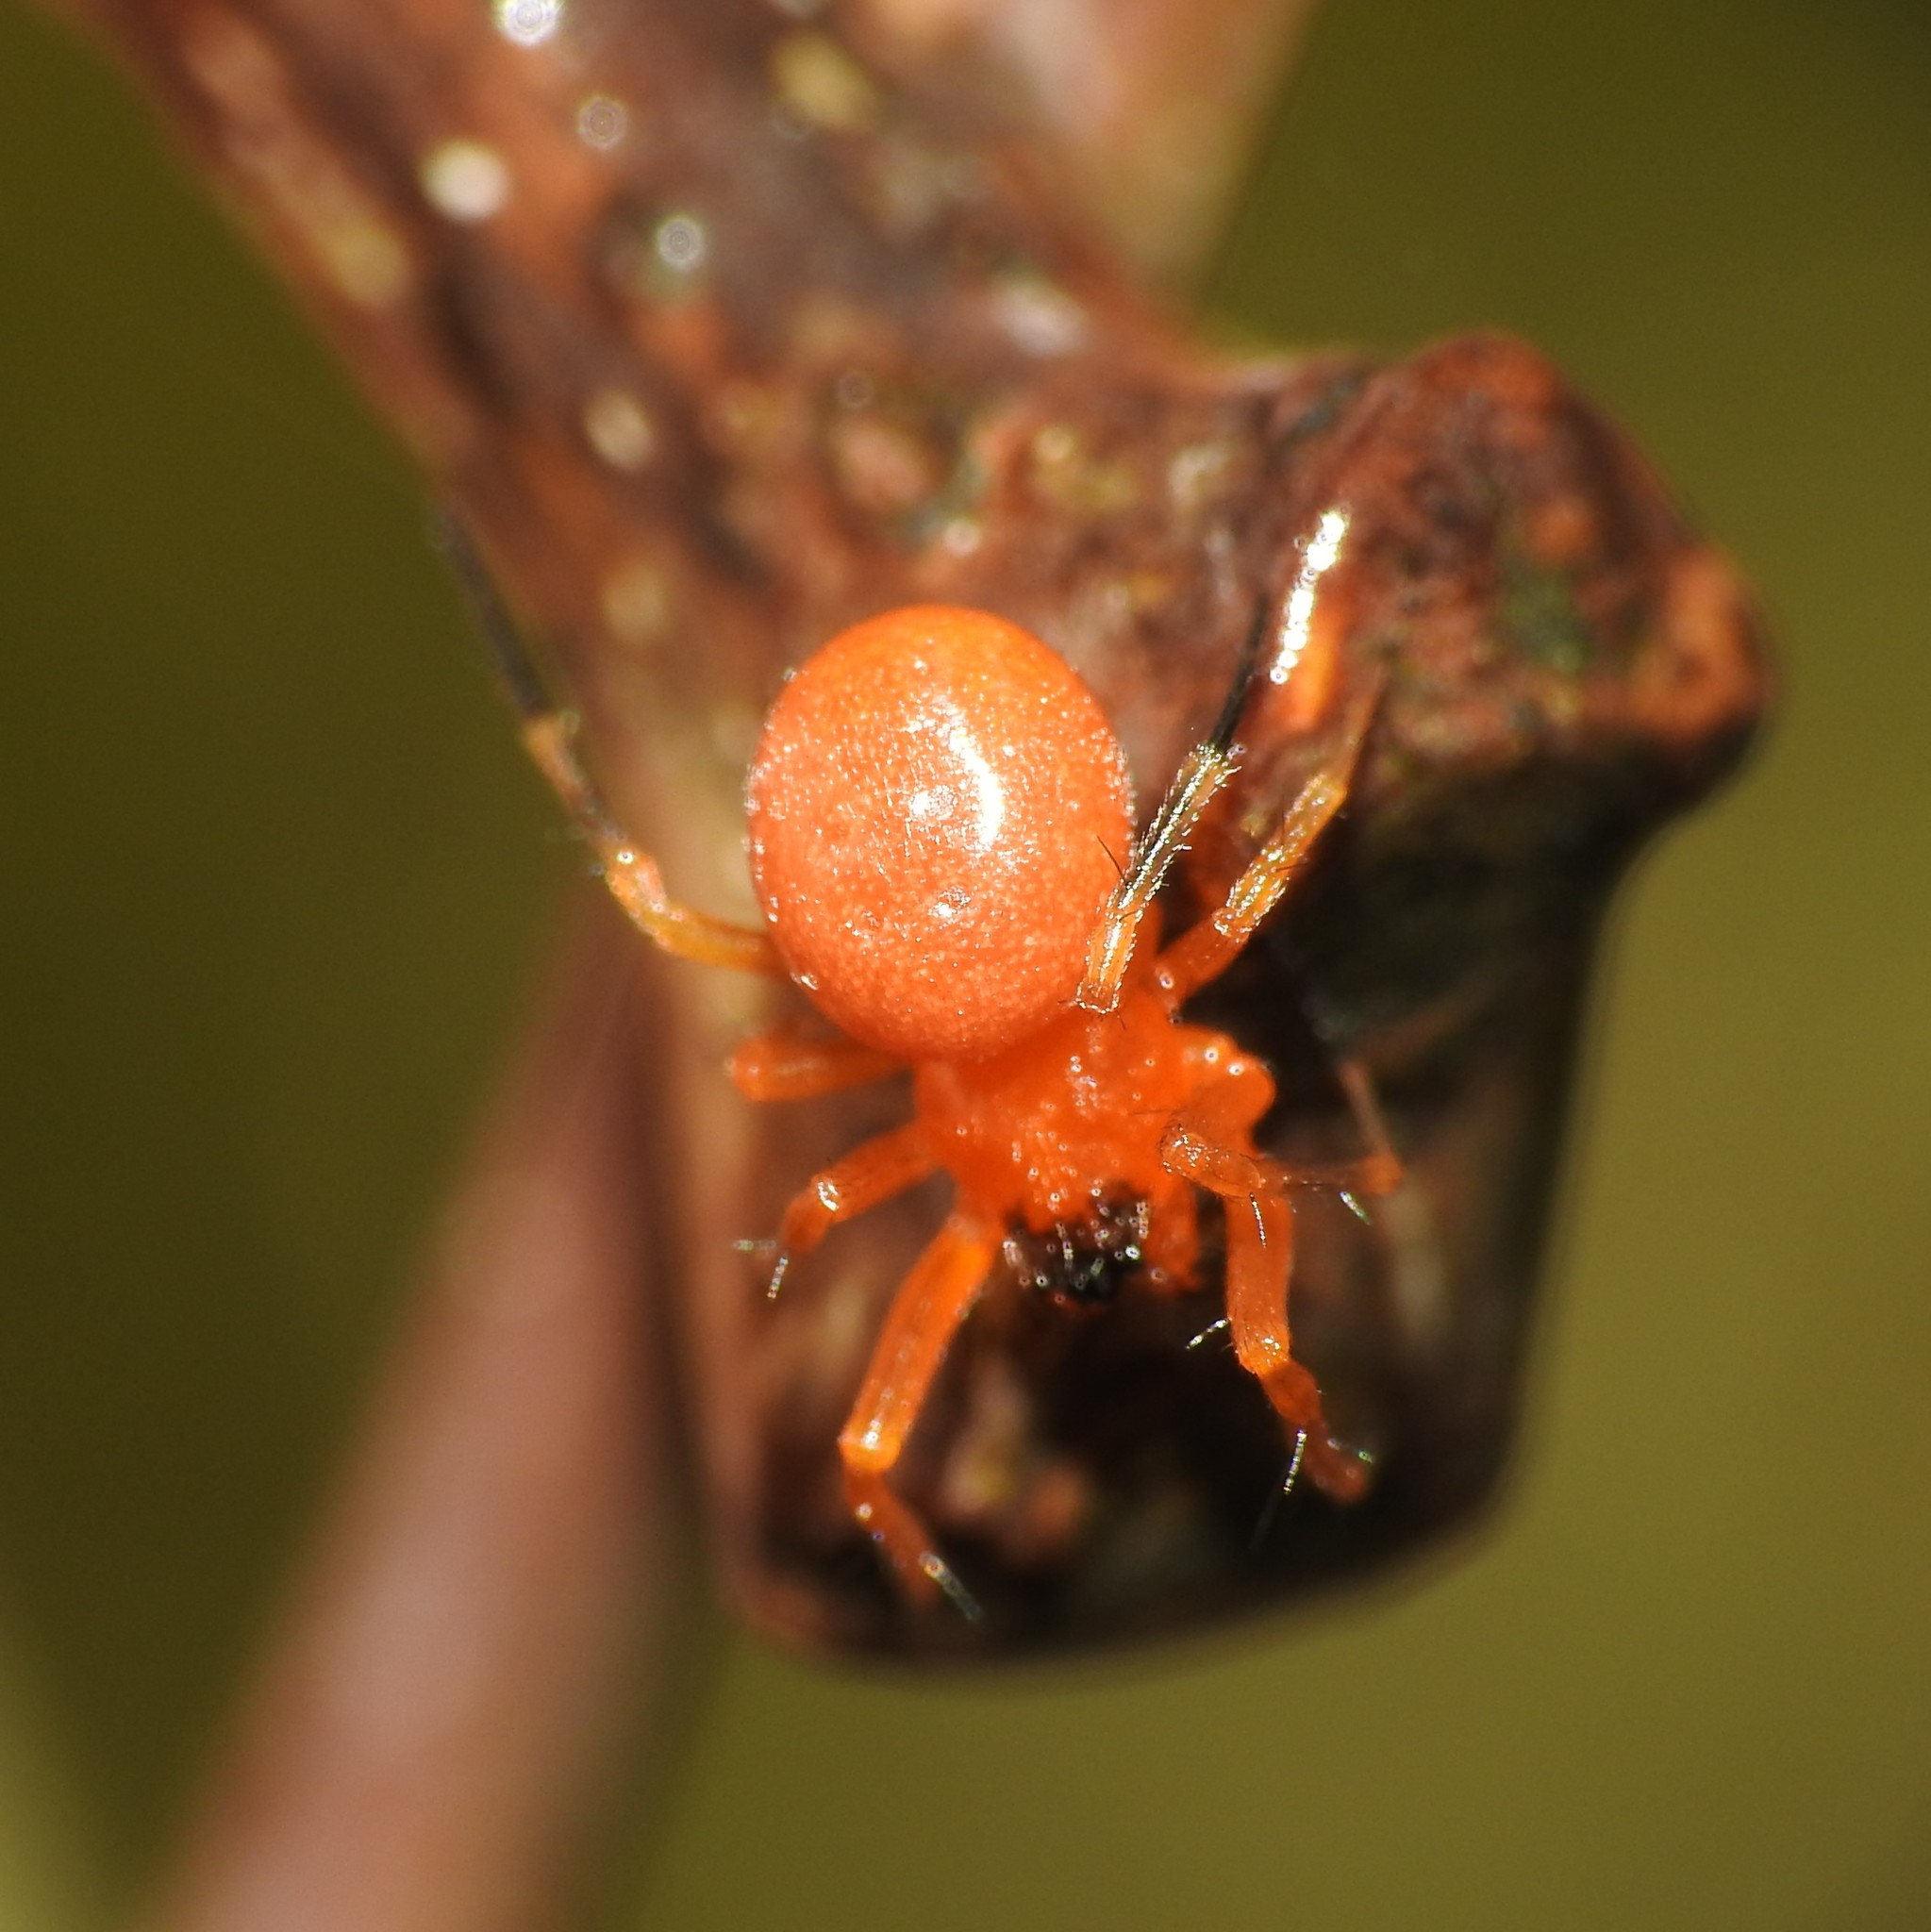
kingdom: Animalia
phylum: Arthropoda
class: Arachnida
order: Araneae
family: Linyphiidae
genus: Ceratinopsidis
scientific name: Ceratinopsidis formosa
